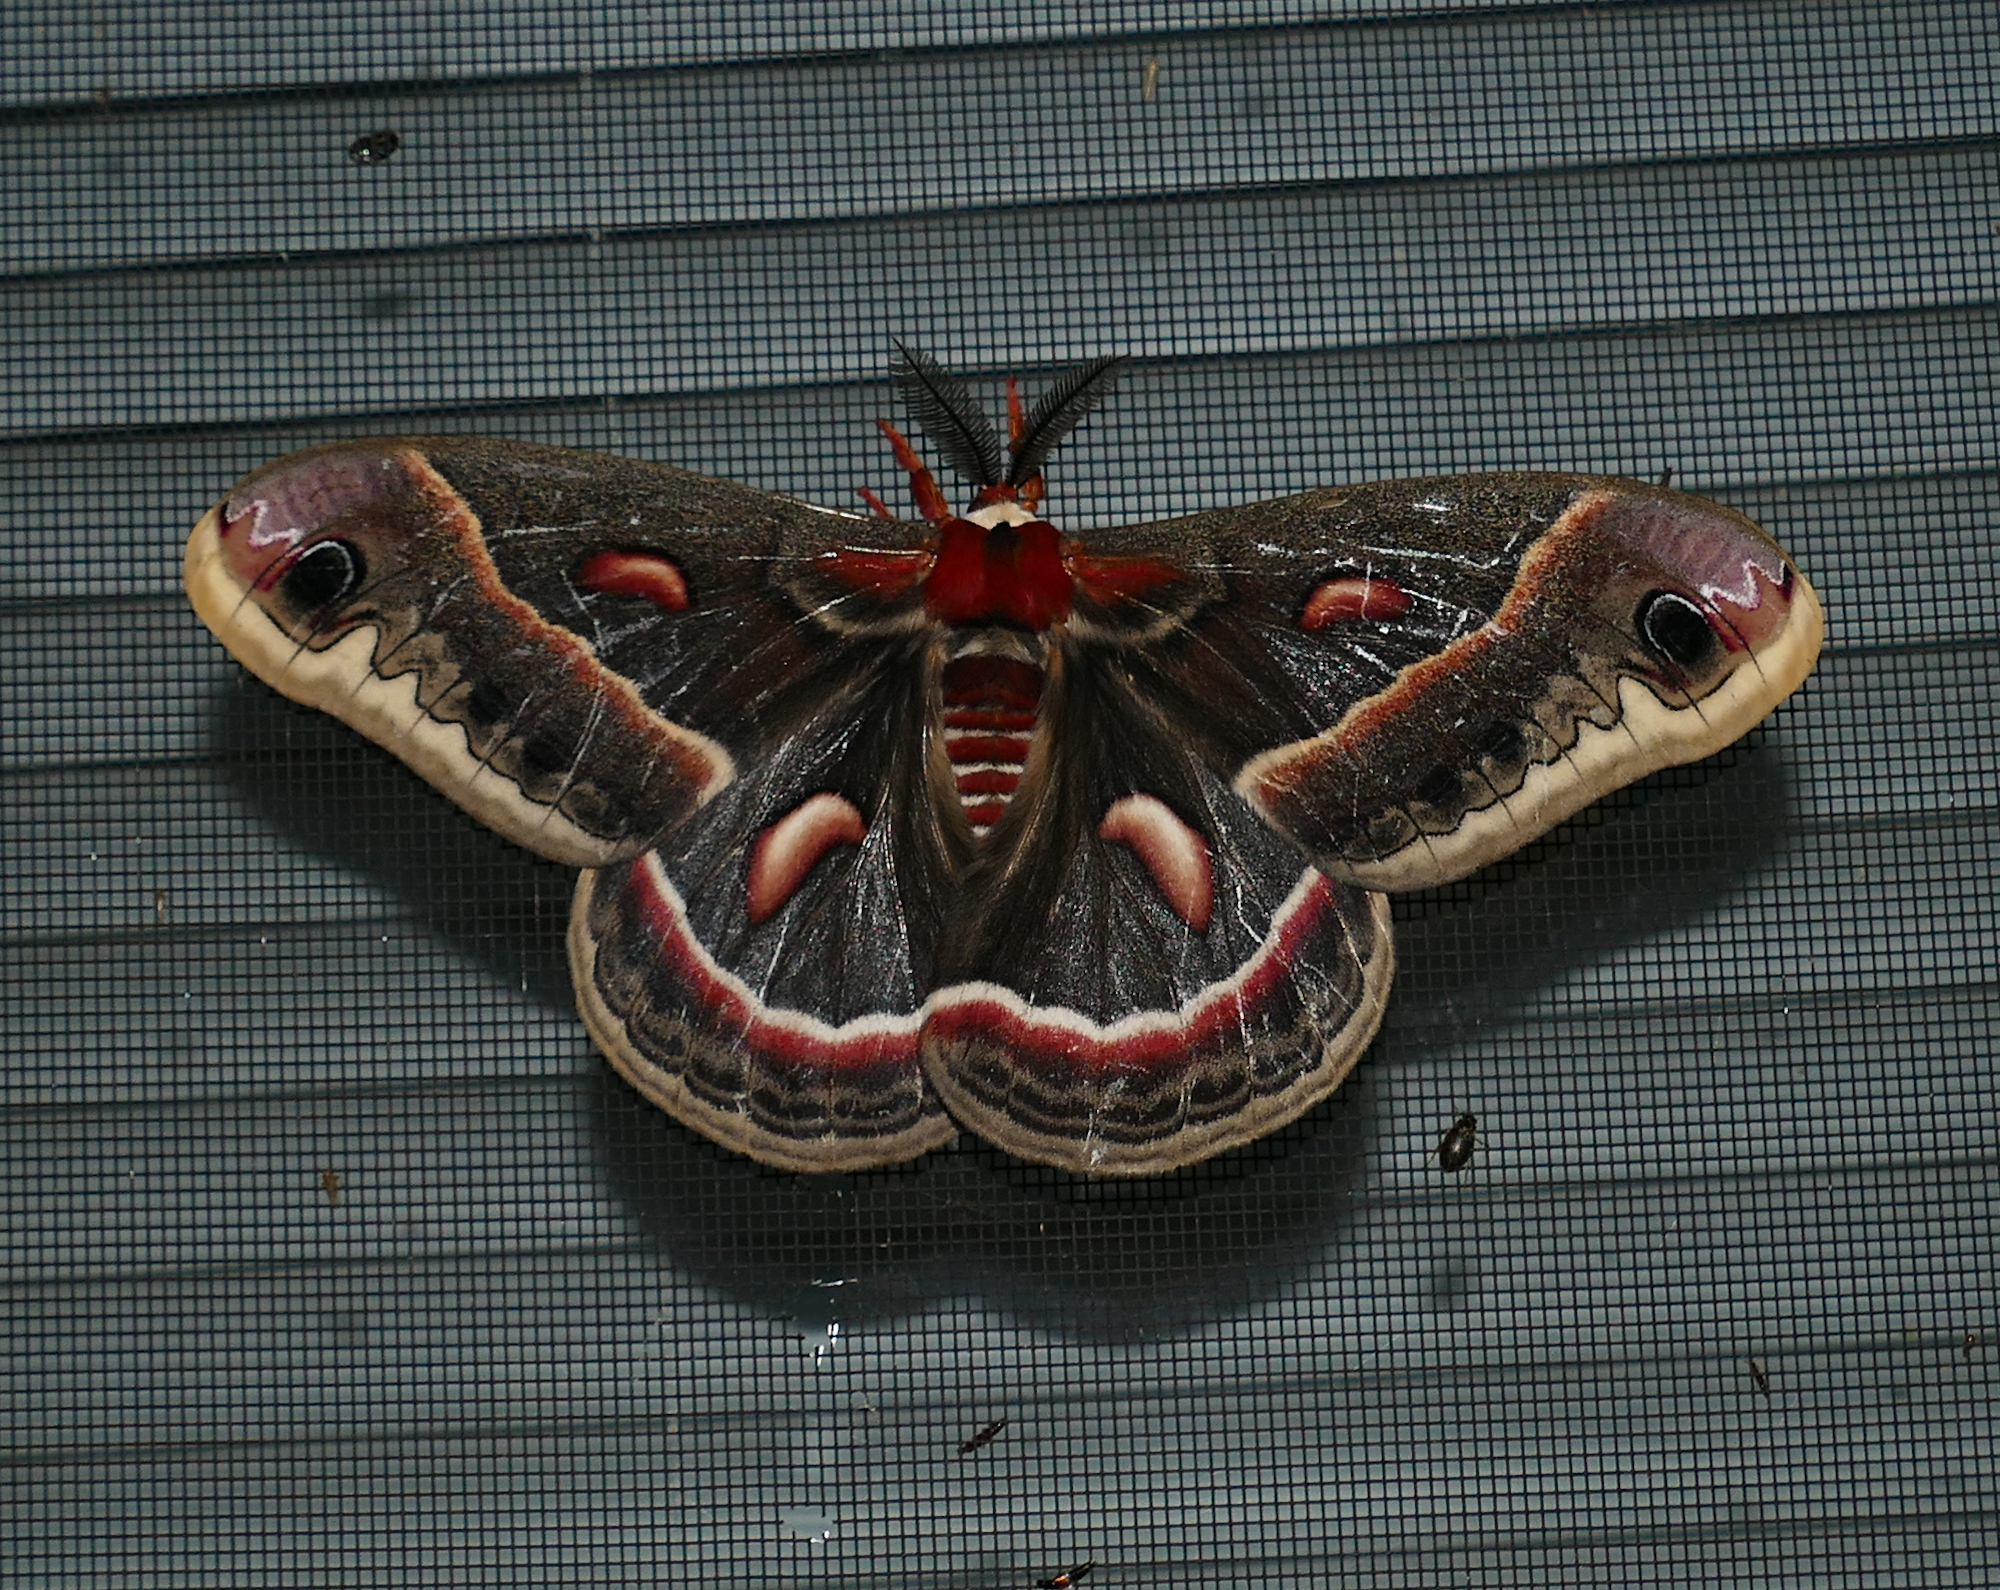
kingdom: Animalia
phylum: Arthropoda
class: Insecta
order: Lepidoptera
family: Saturniidae
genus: Hyalophora
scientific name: Hyalophora cecropia
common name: Cecropia silkmoth
